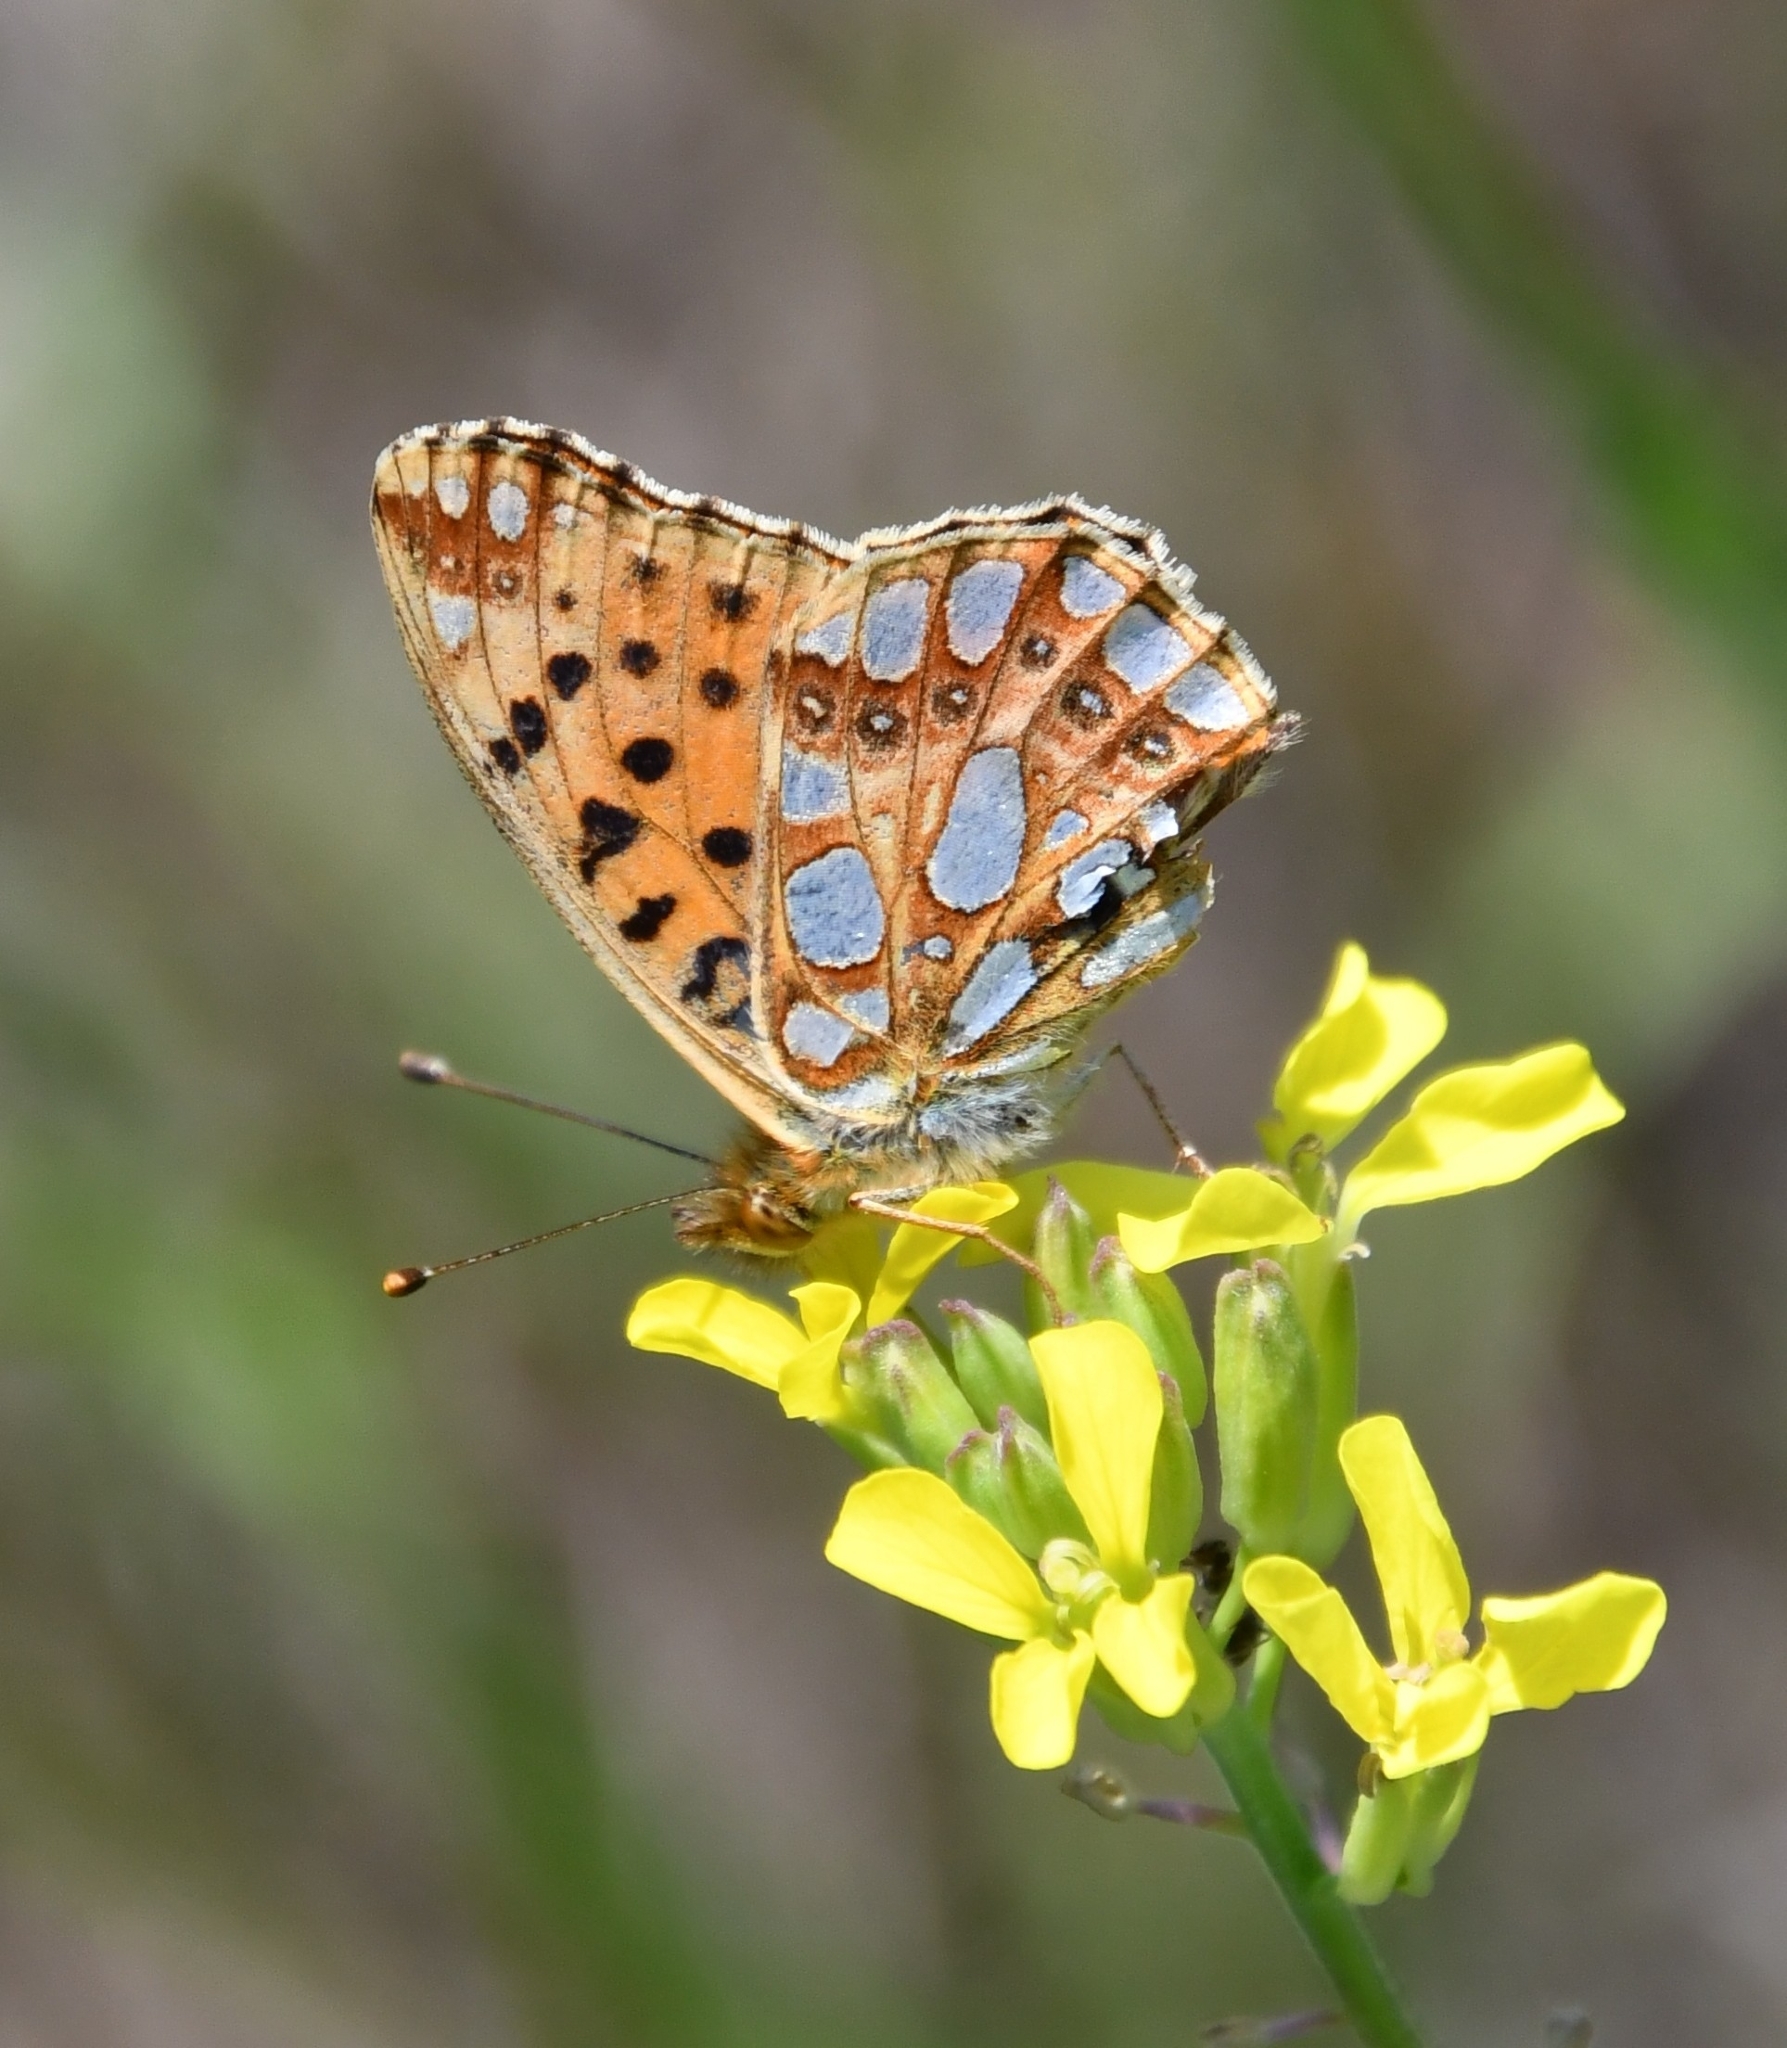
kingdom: Animalia
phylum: Arthropoda
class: Insecta
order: Lepidoptera
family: Nymphalidae
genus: Issoria
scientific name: Issoria lathonia
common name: Queen of spain fritillary
